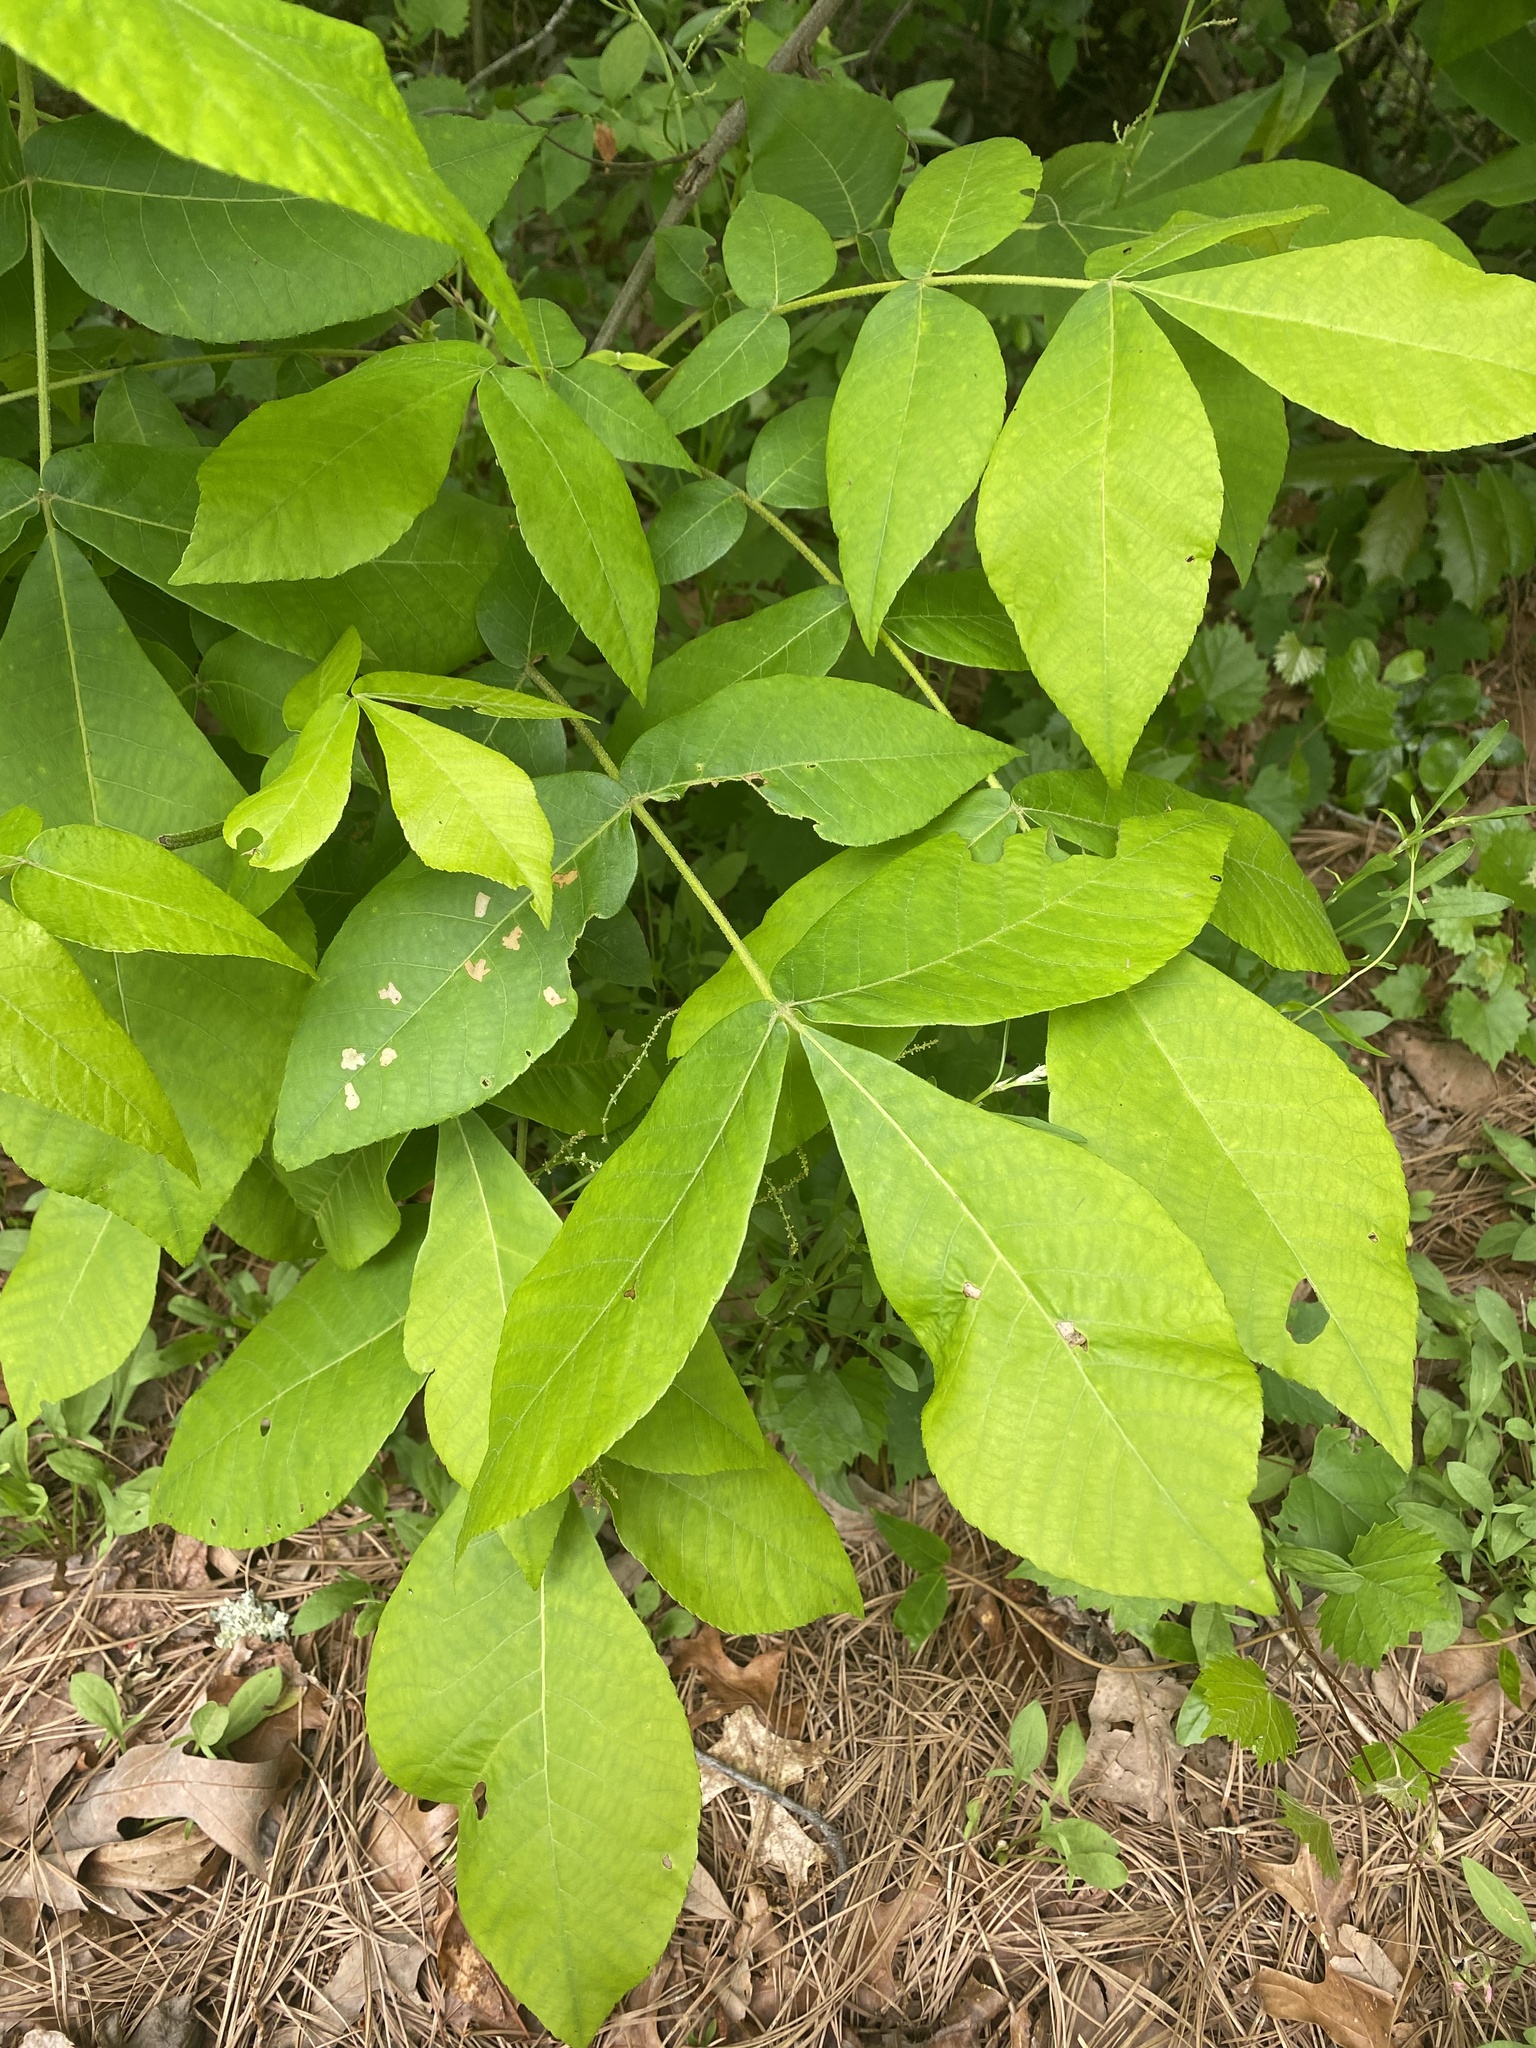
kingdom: Plantae
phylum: Tracheophyta
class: Magnoliopsida
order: Fagales
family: Juglandaceae
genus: Carya
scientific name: Carya alba
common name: Mockernut hickory
